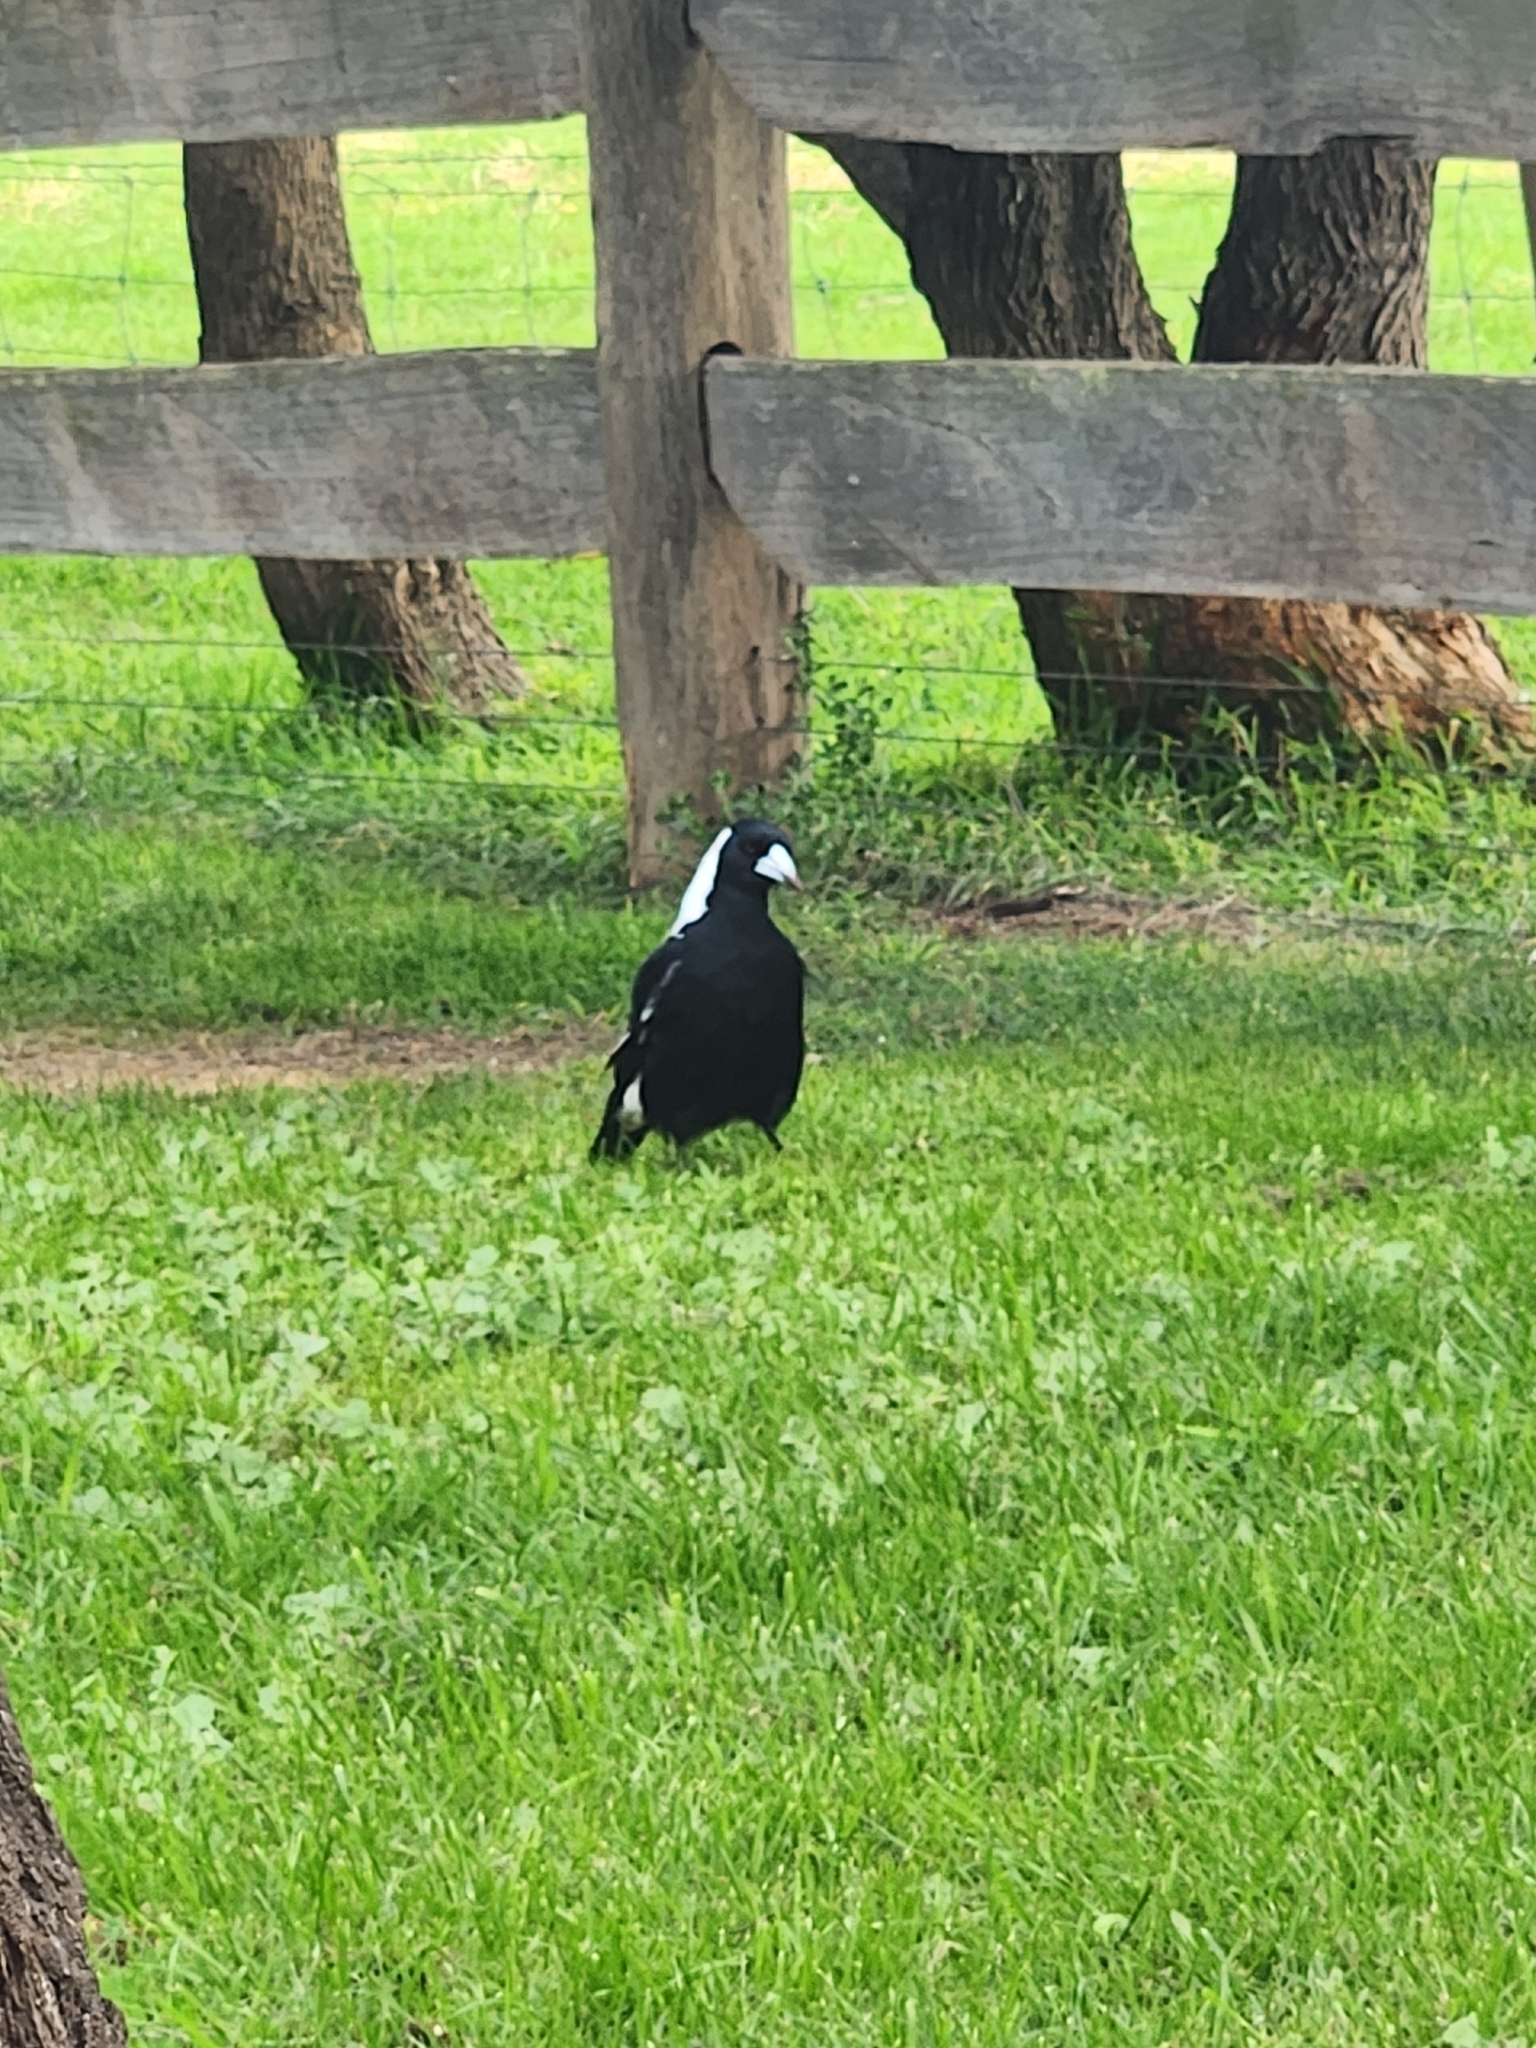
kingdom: Animalia
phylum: Chordata
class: Aves
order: Passeriformes
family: Cracticidae
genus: Gymnorhina
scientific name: Gymnorhina tibicen
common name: Australian magpie
